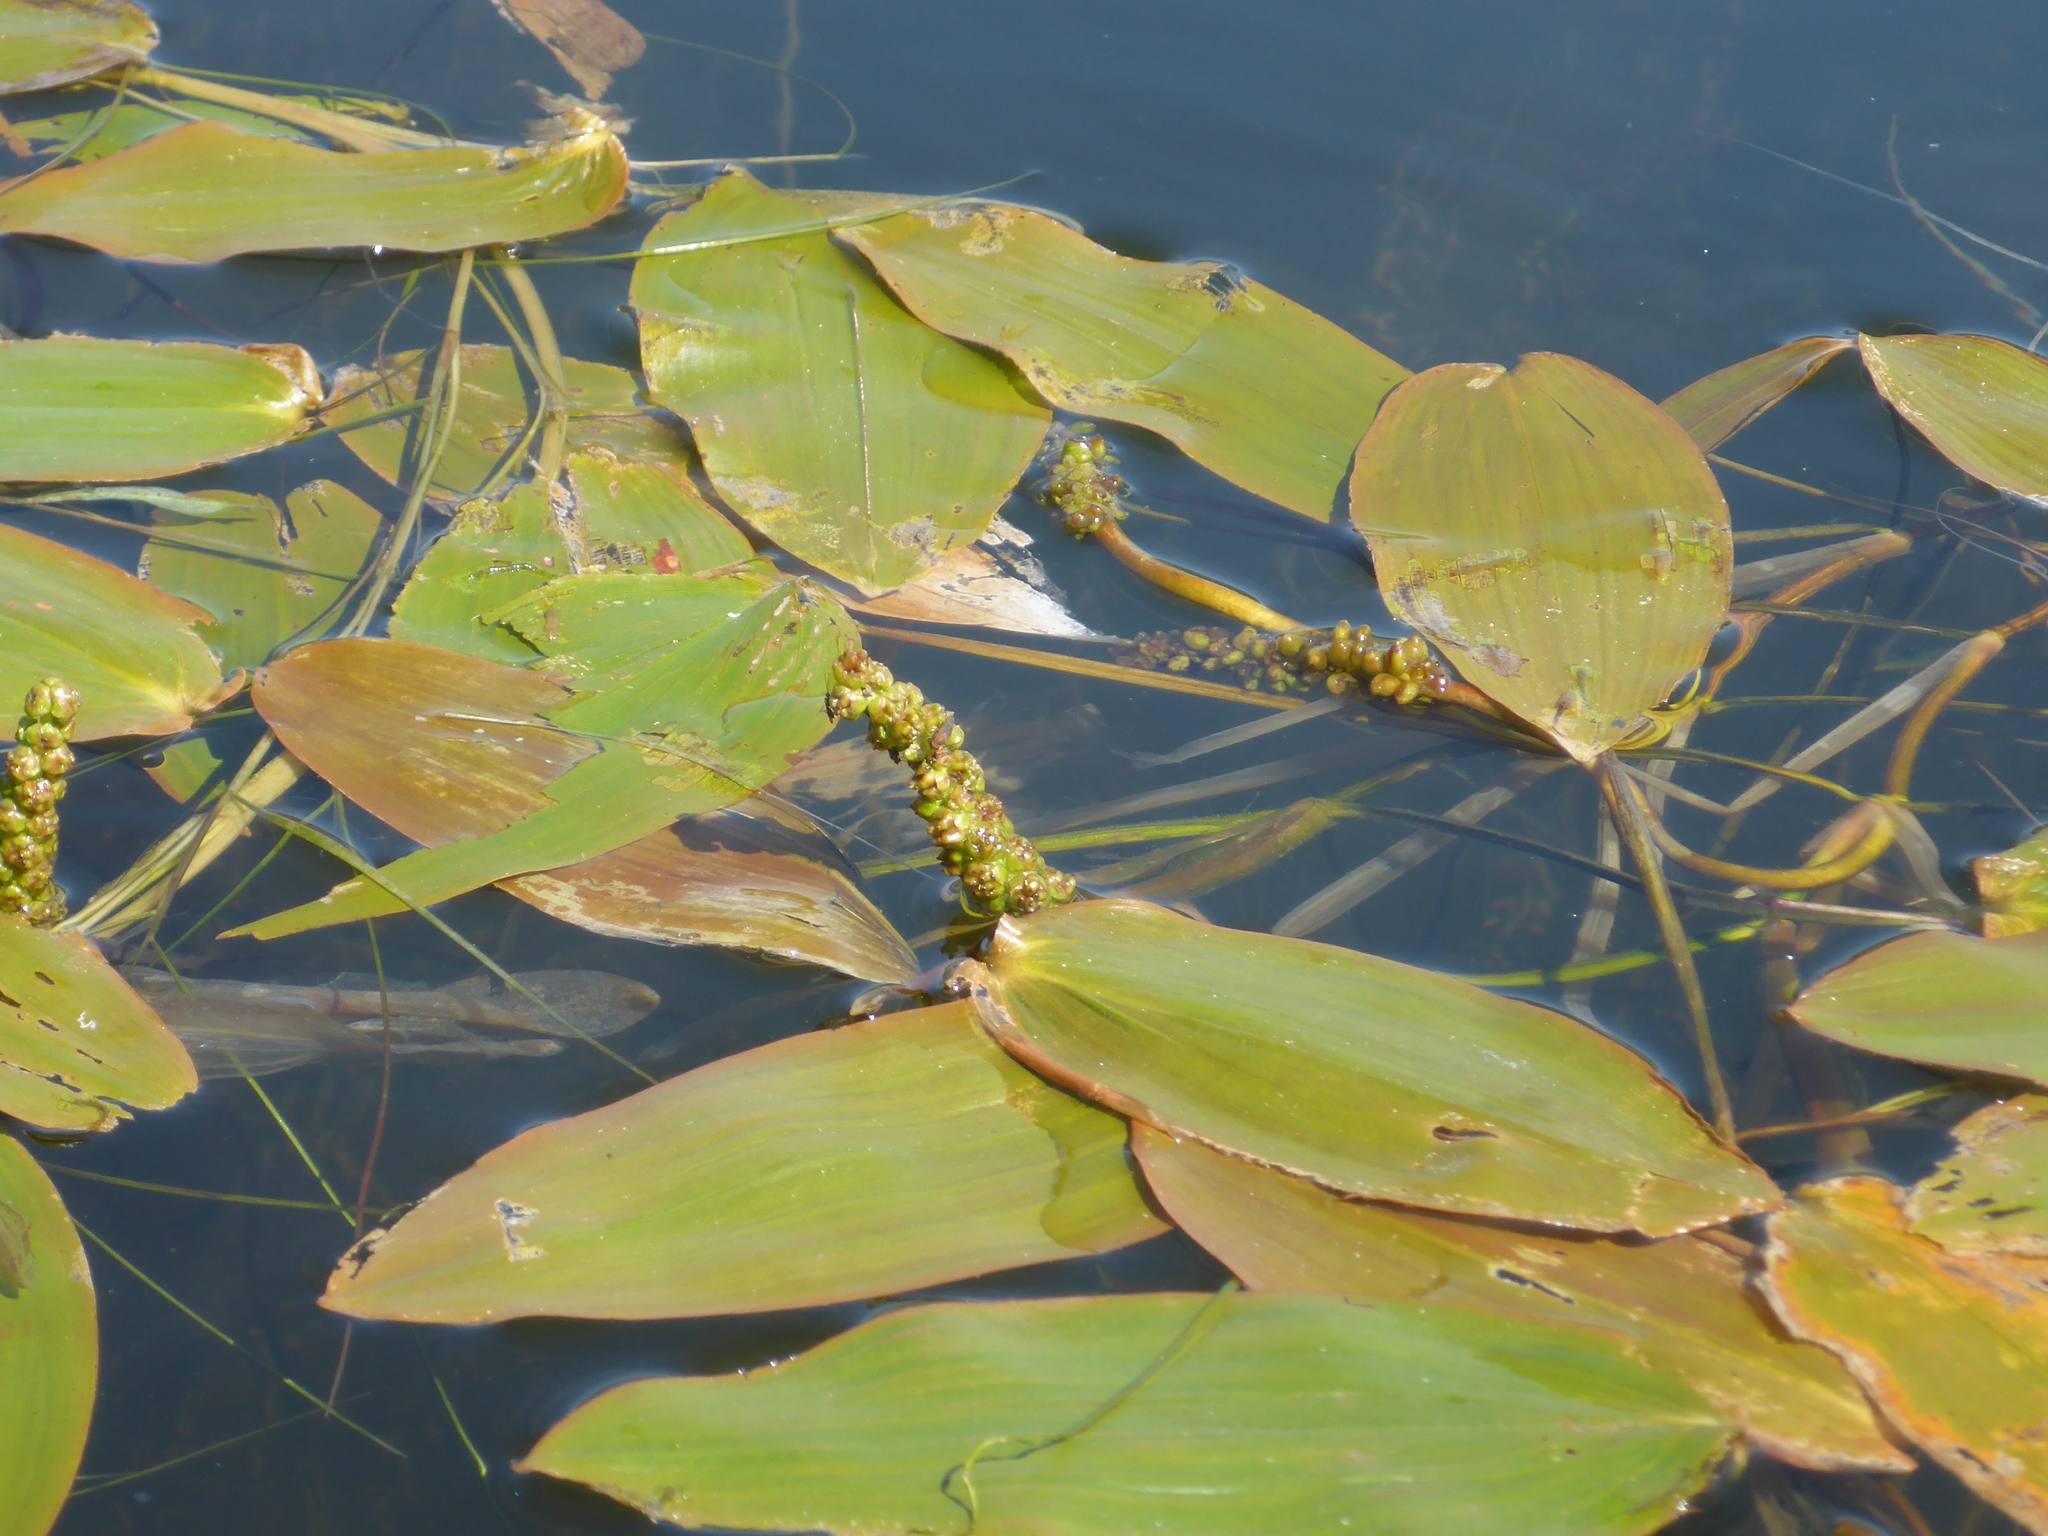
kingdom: Plantae
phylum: Tracheophyta
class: Liliopsida
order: Alismatales
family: Potamogetonaceae
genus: Potamogeton
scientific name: Potamogeton natans
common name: Broad-leaved pondweed
